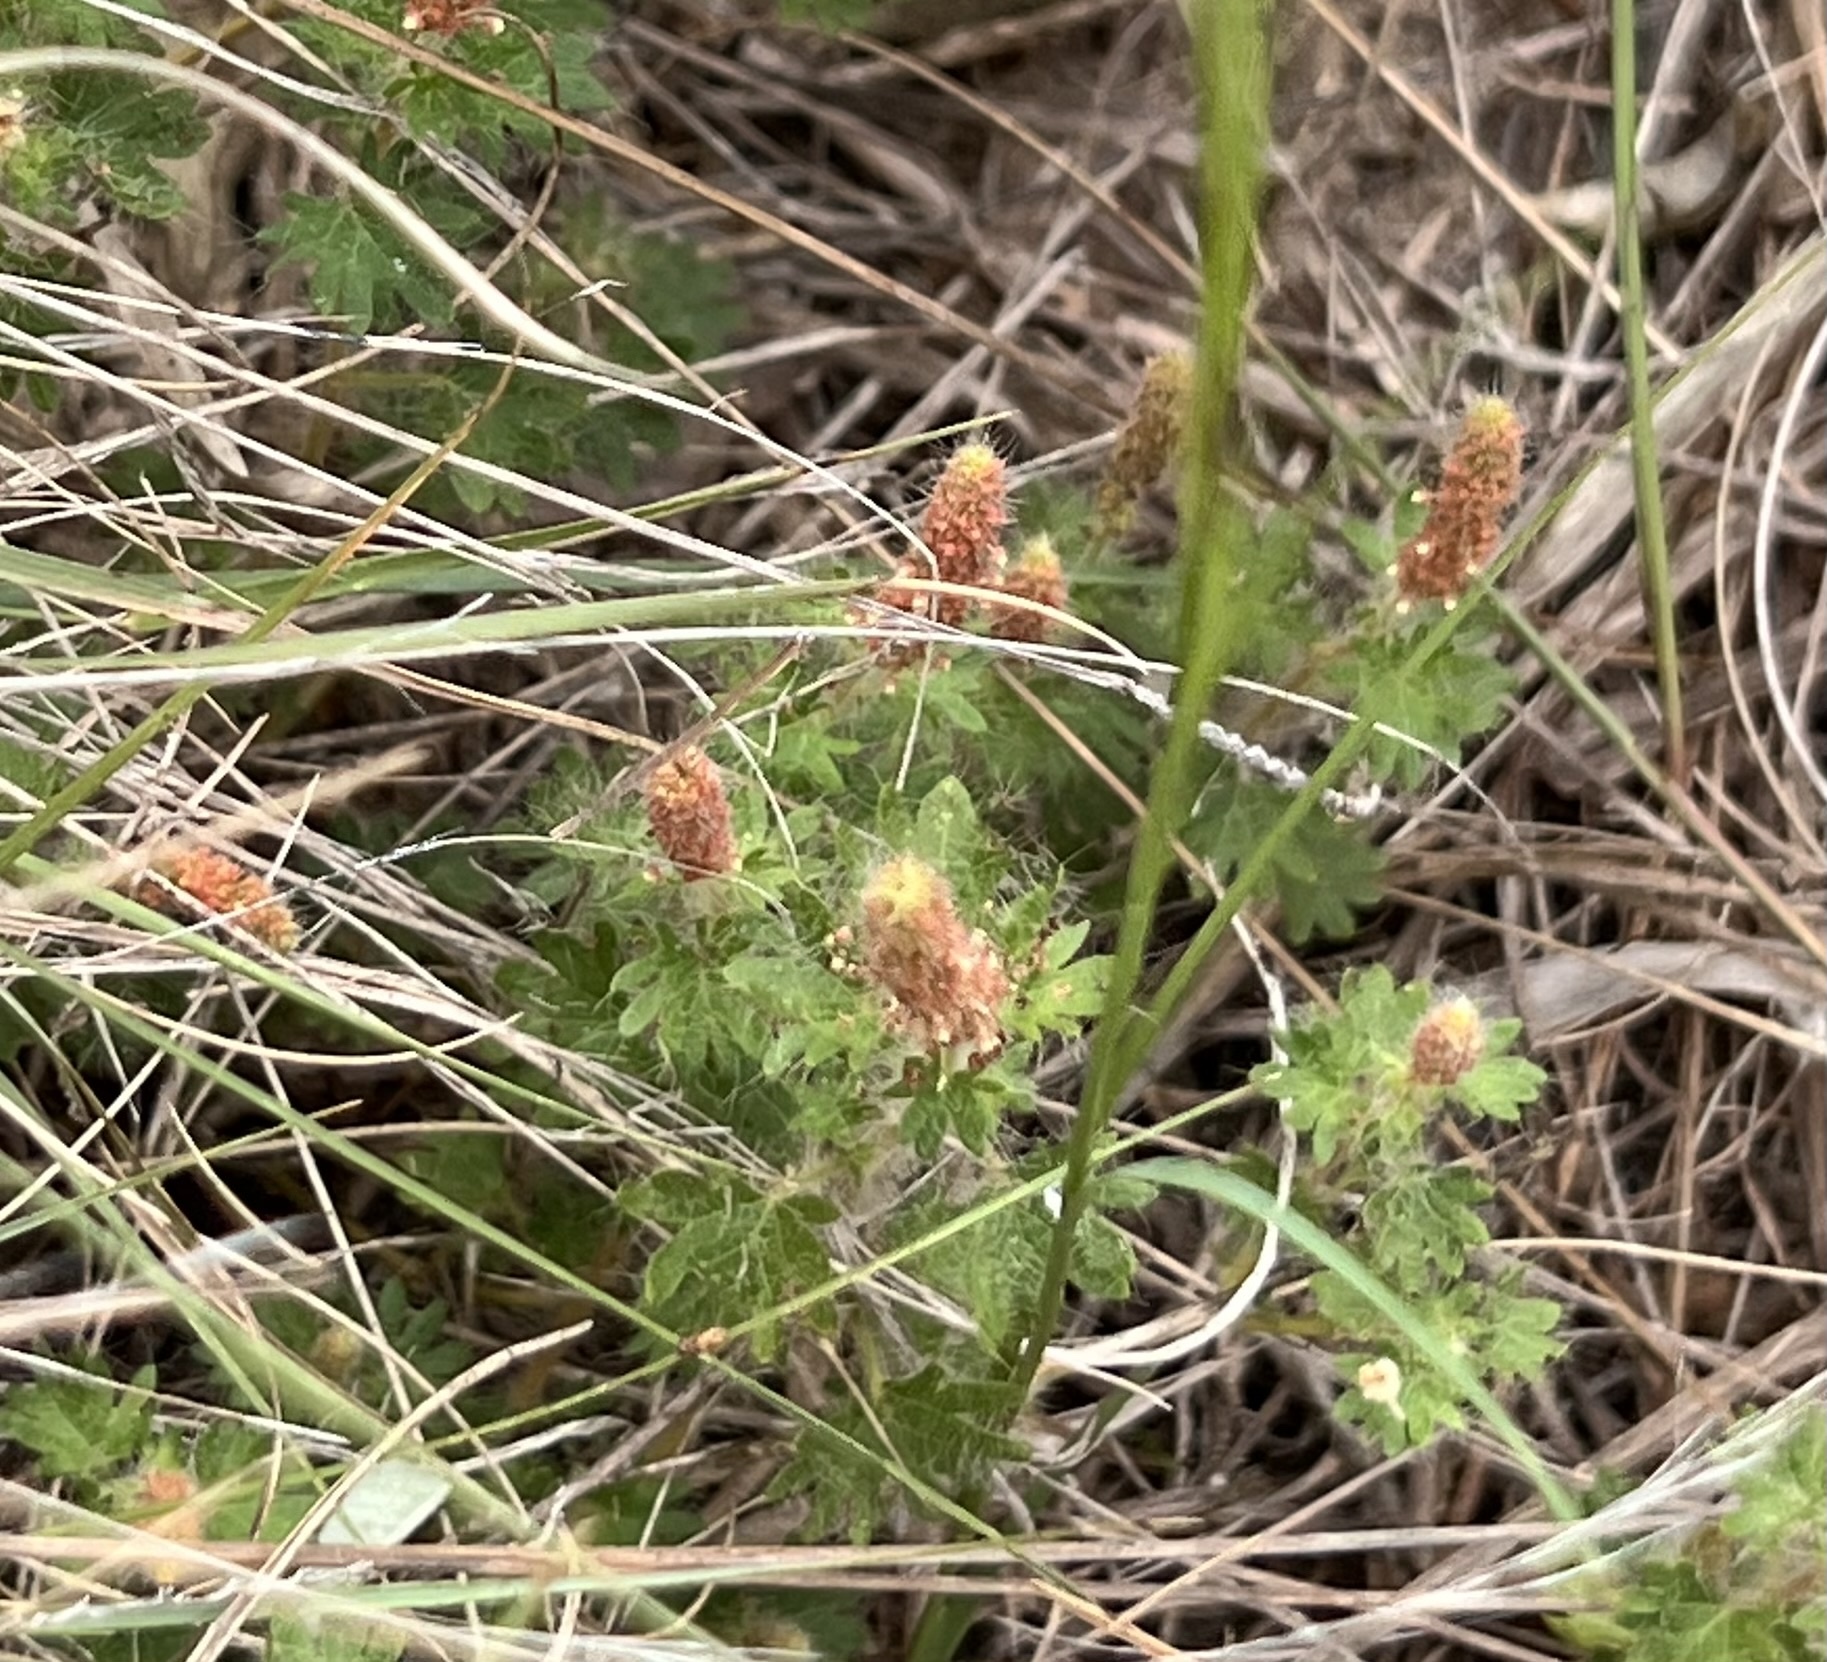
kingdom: Plantae
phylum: Tracheophyta
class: Magnoliopsida
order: Malpighiales
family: Euphorbiaceae
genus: Acalypha
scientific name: Acalypha radians
